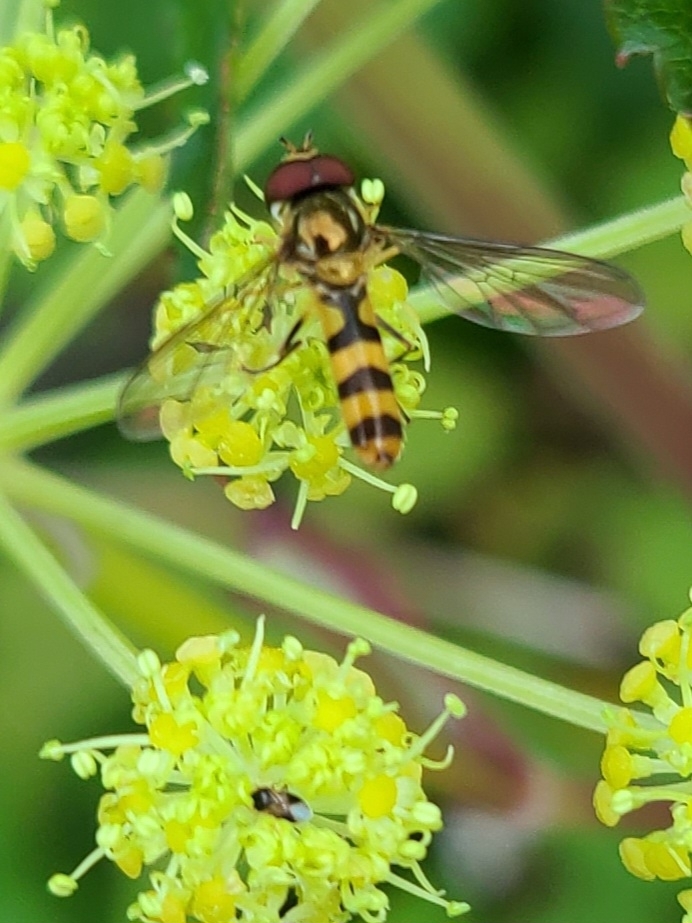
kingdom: Animalia
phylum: Arthropoda
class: Insecta
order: Diptera
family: Syrphidae
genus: Meliscaeva
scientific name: Meliscaeva cinctella
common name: American thintail fly
